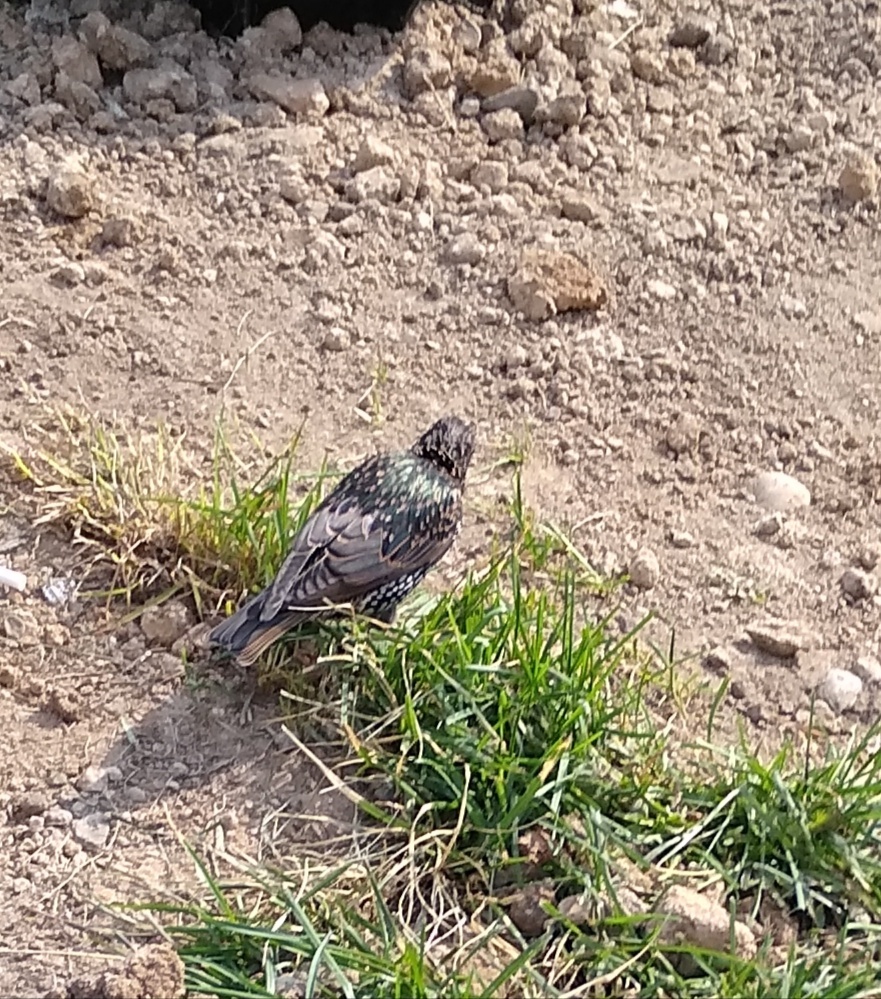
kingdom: Animalia
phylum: Chordata
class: Aves
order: Passeriformes
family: Sturnidae
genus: Sturnus
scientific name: Sturnus vulgaris
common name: Common starling
